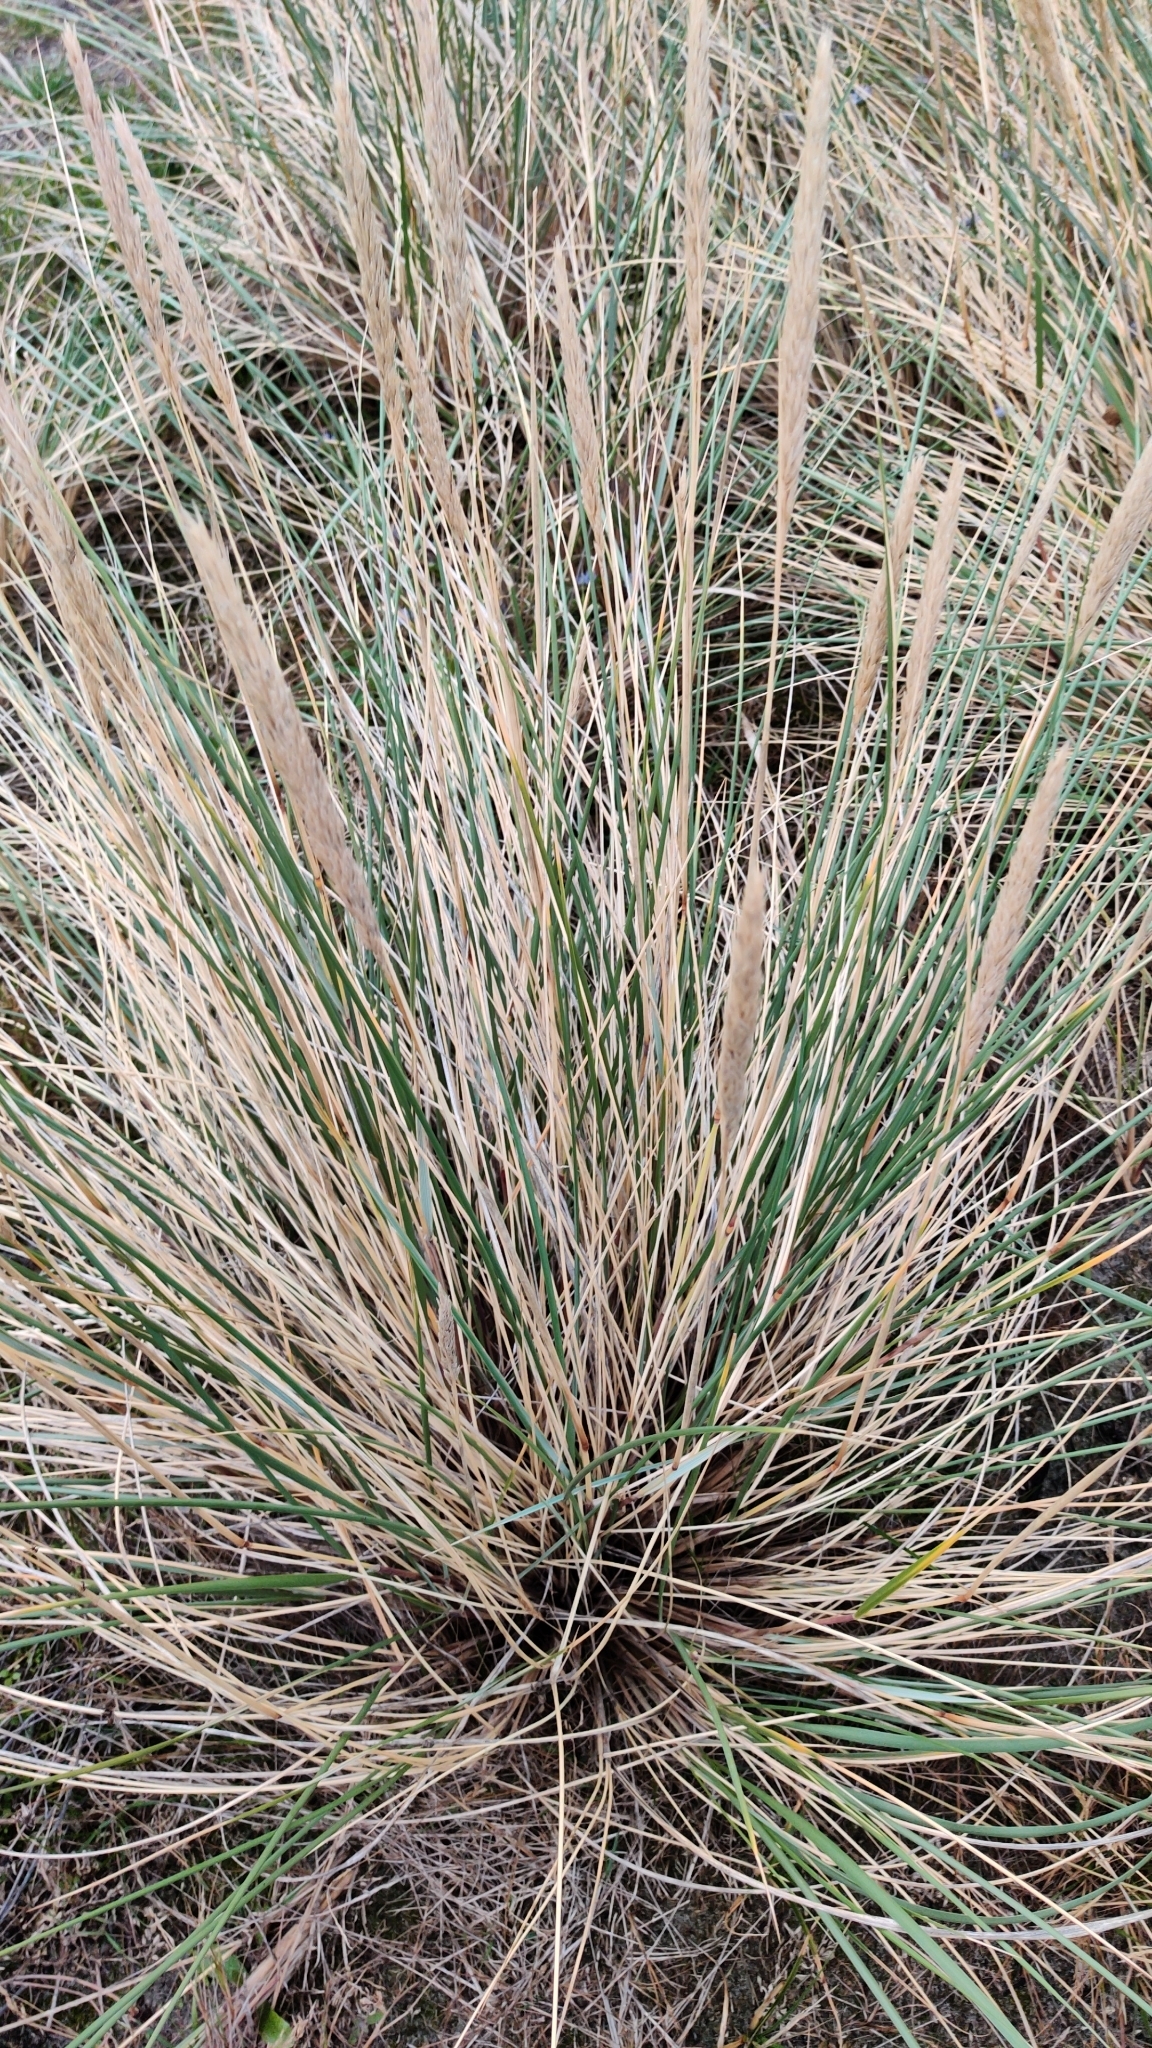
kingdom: Plantae
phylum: Tracheophyta
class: Liliopsida
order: Poales
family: Poaceae
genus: Calamagrostis
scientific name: Calamagrostis arenaria
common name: European beachgrass
